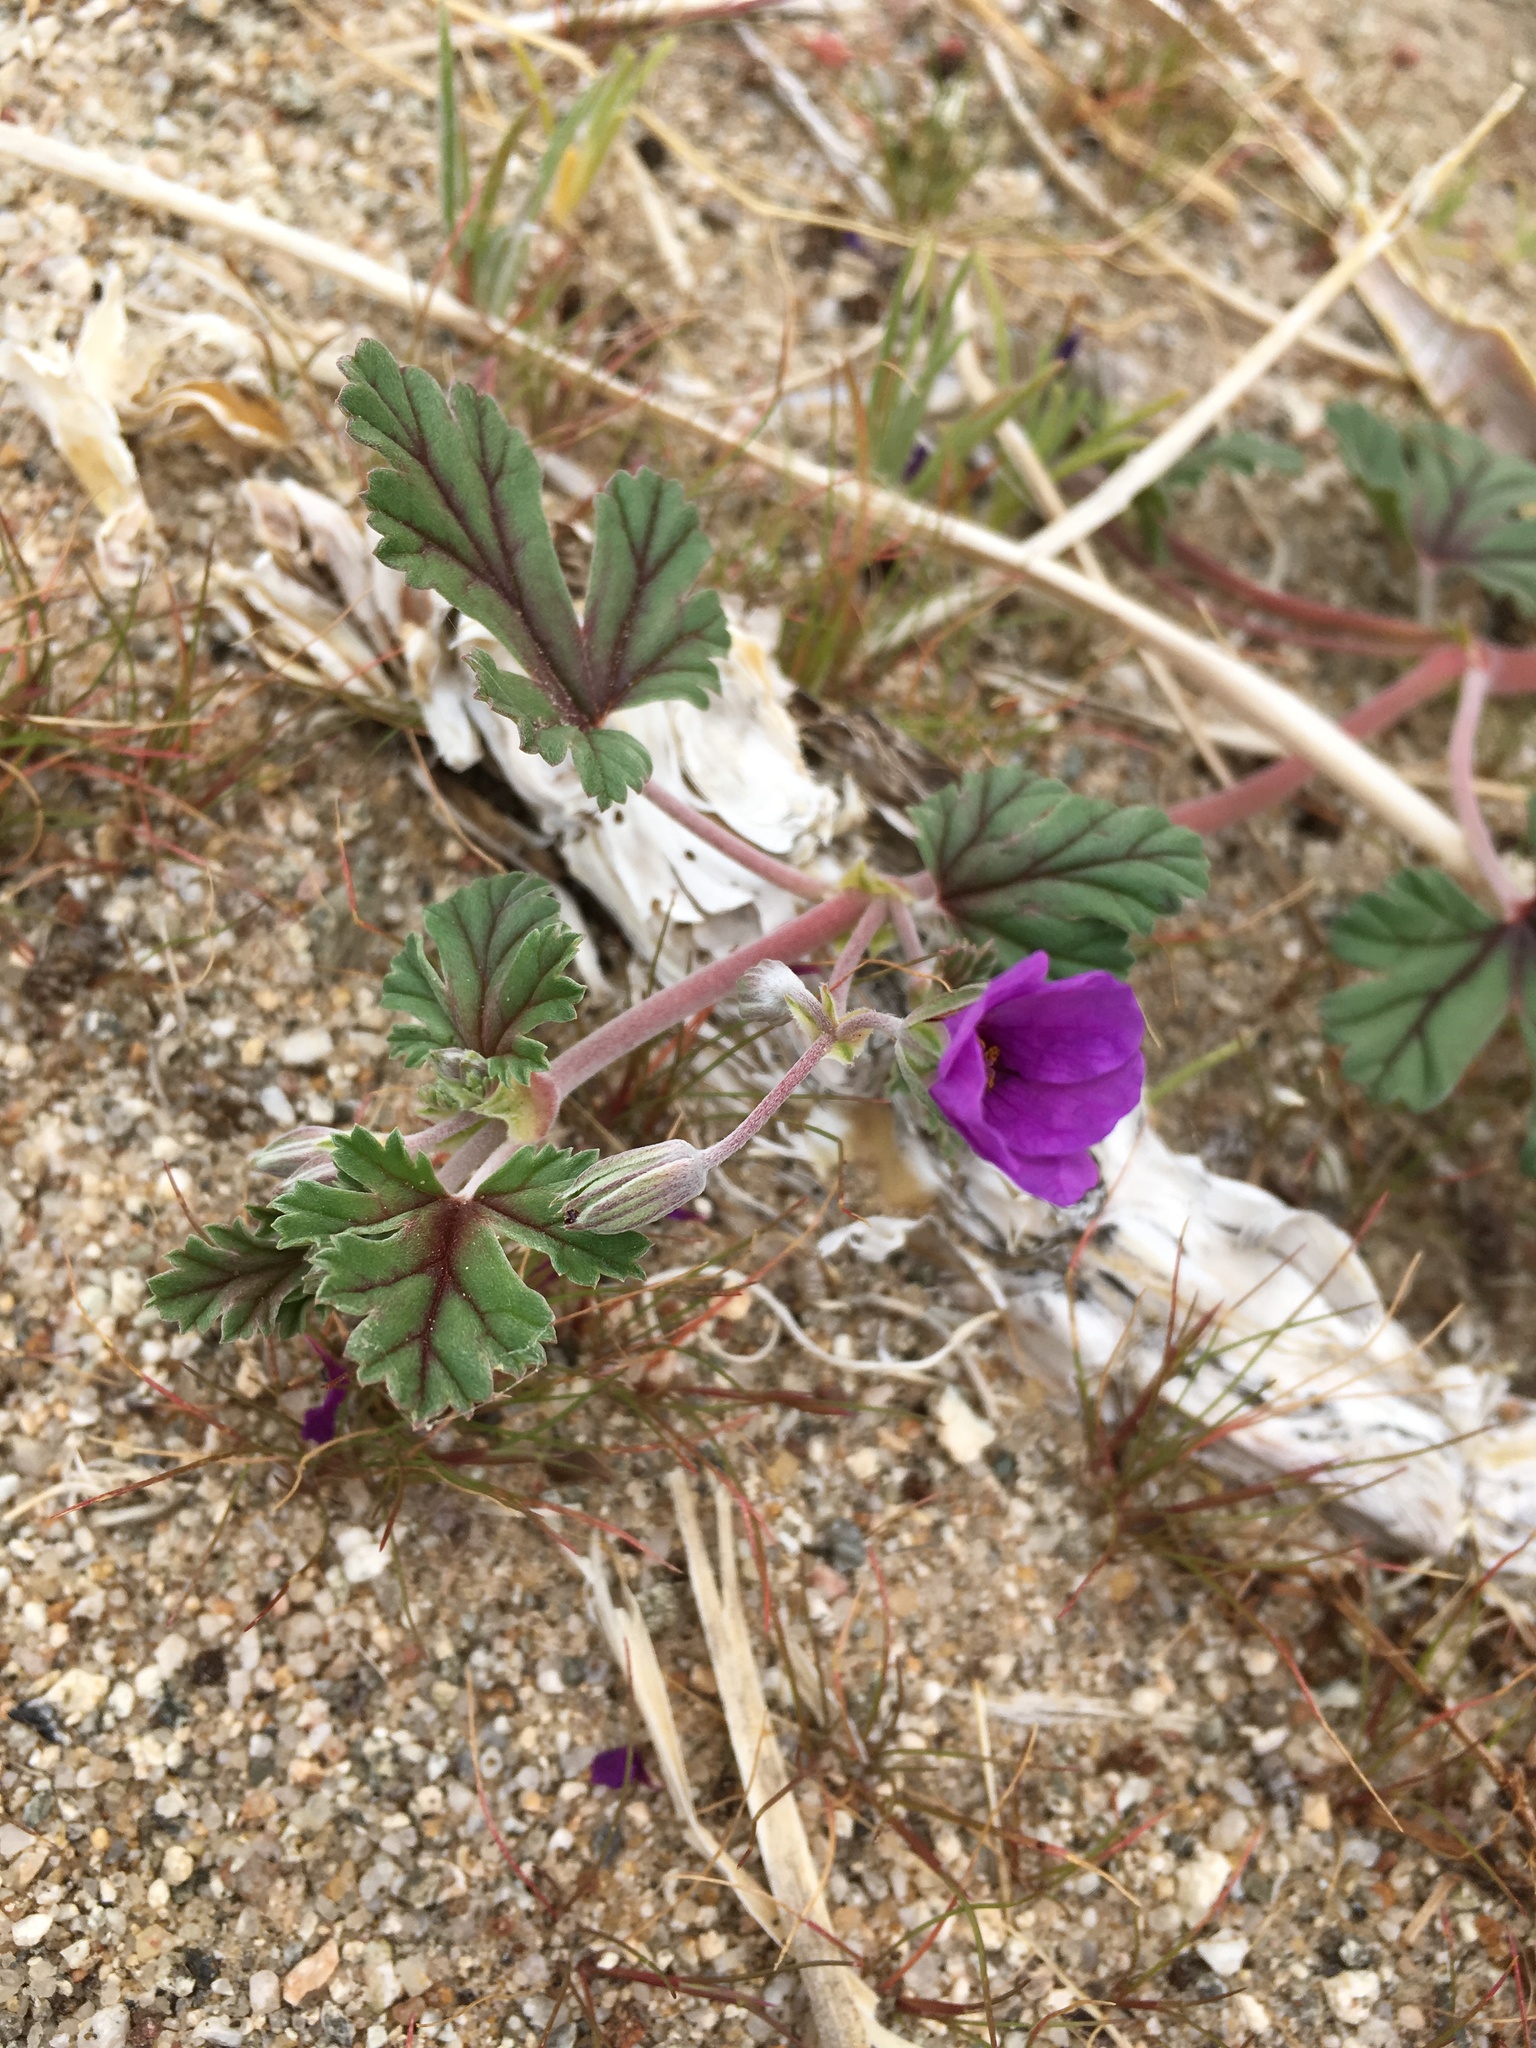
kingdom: Plantae
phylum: Tracheophyta
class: Magnoliopsida
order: Geraniales
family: Geraniaceae
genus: Erodium
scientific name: Erodium texanum
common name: Texas stork's-bill
